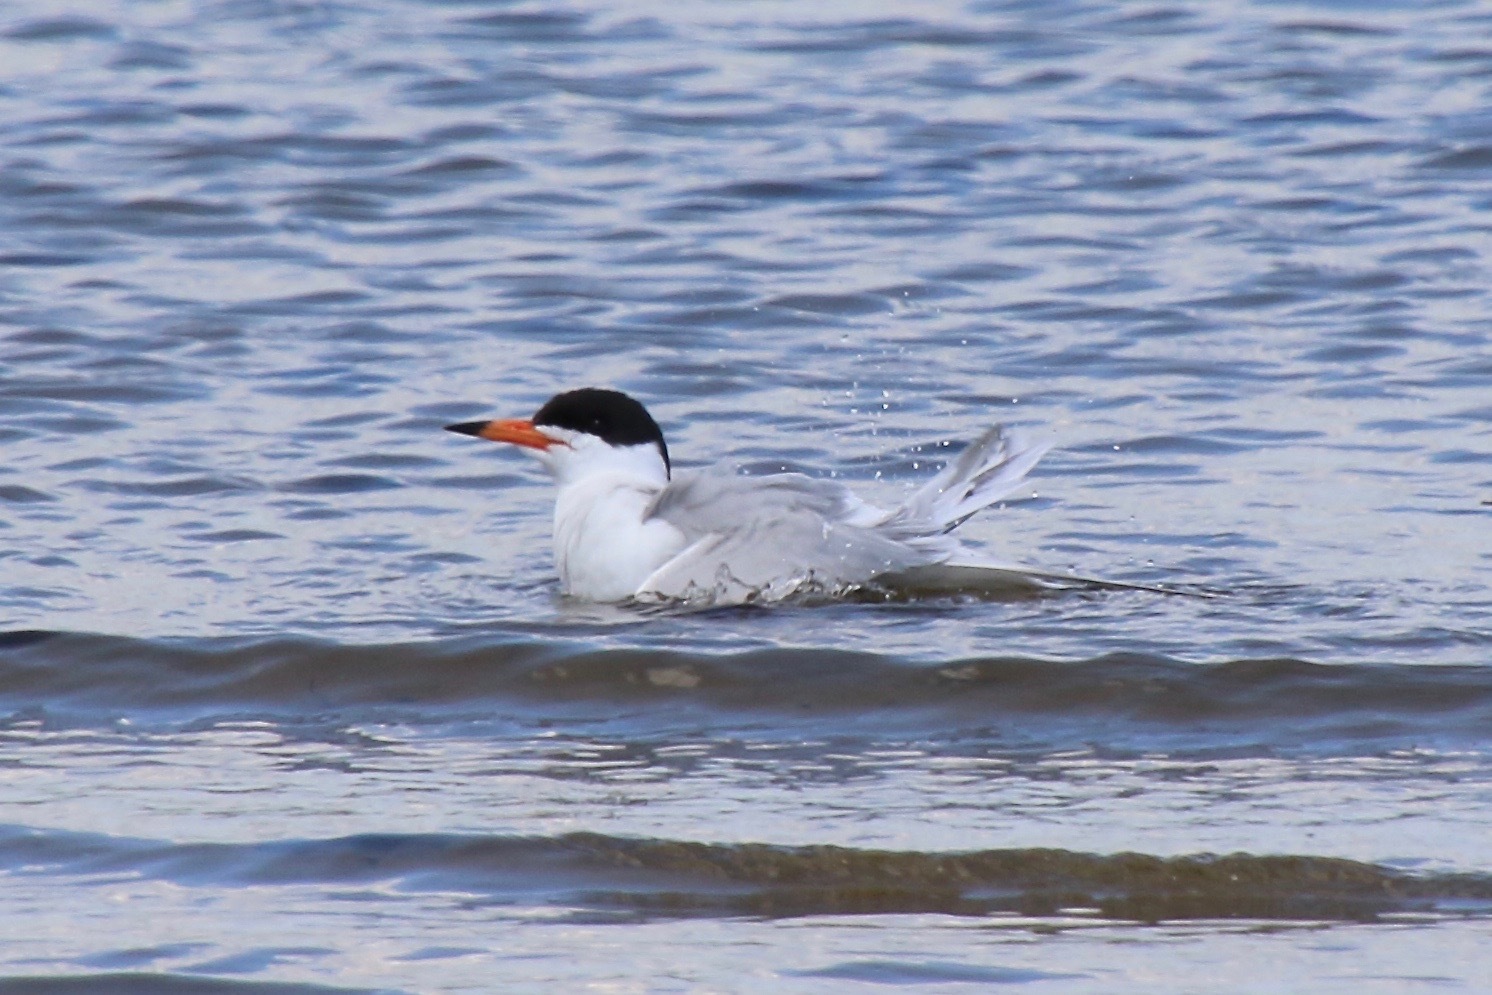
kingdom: Animalia
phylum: Chordata
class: Aves
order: Charadriiformes
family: Laridae
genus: Sterna
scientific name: Sterna forsteri
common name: Forster's tern
